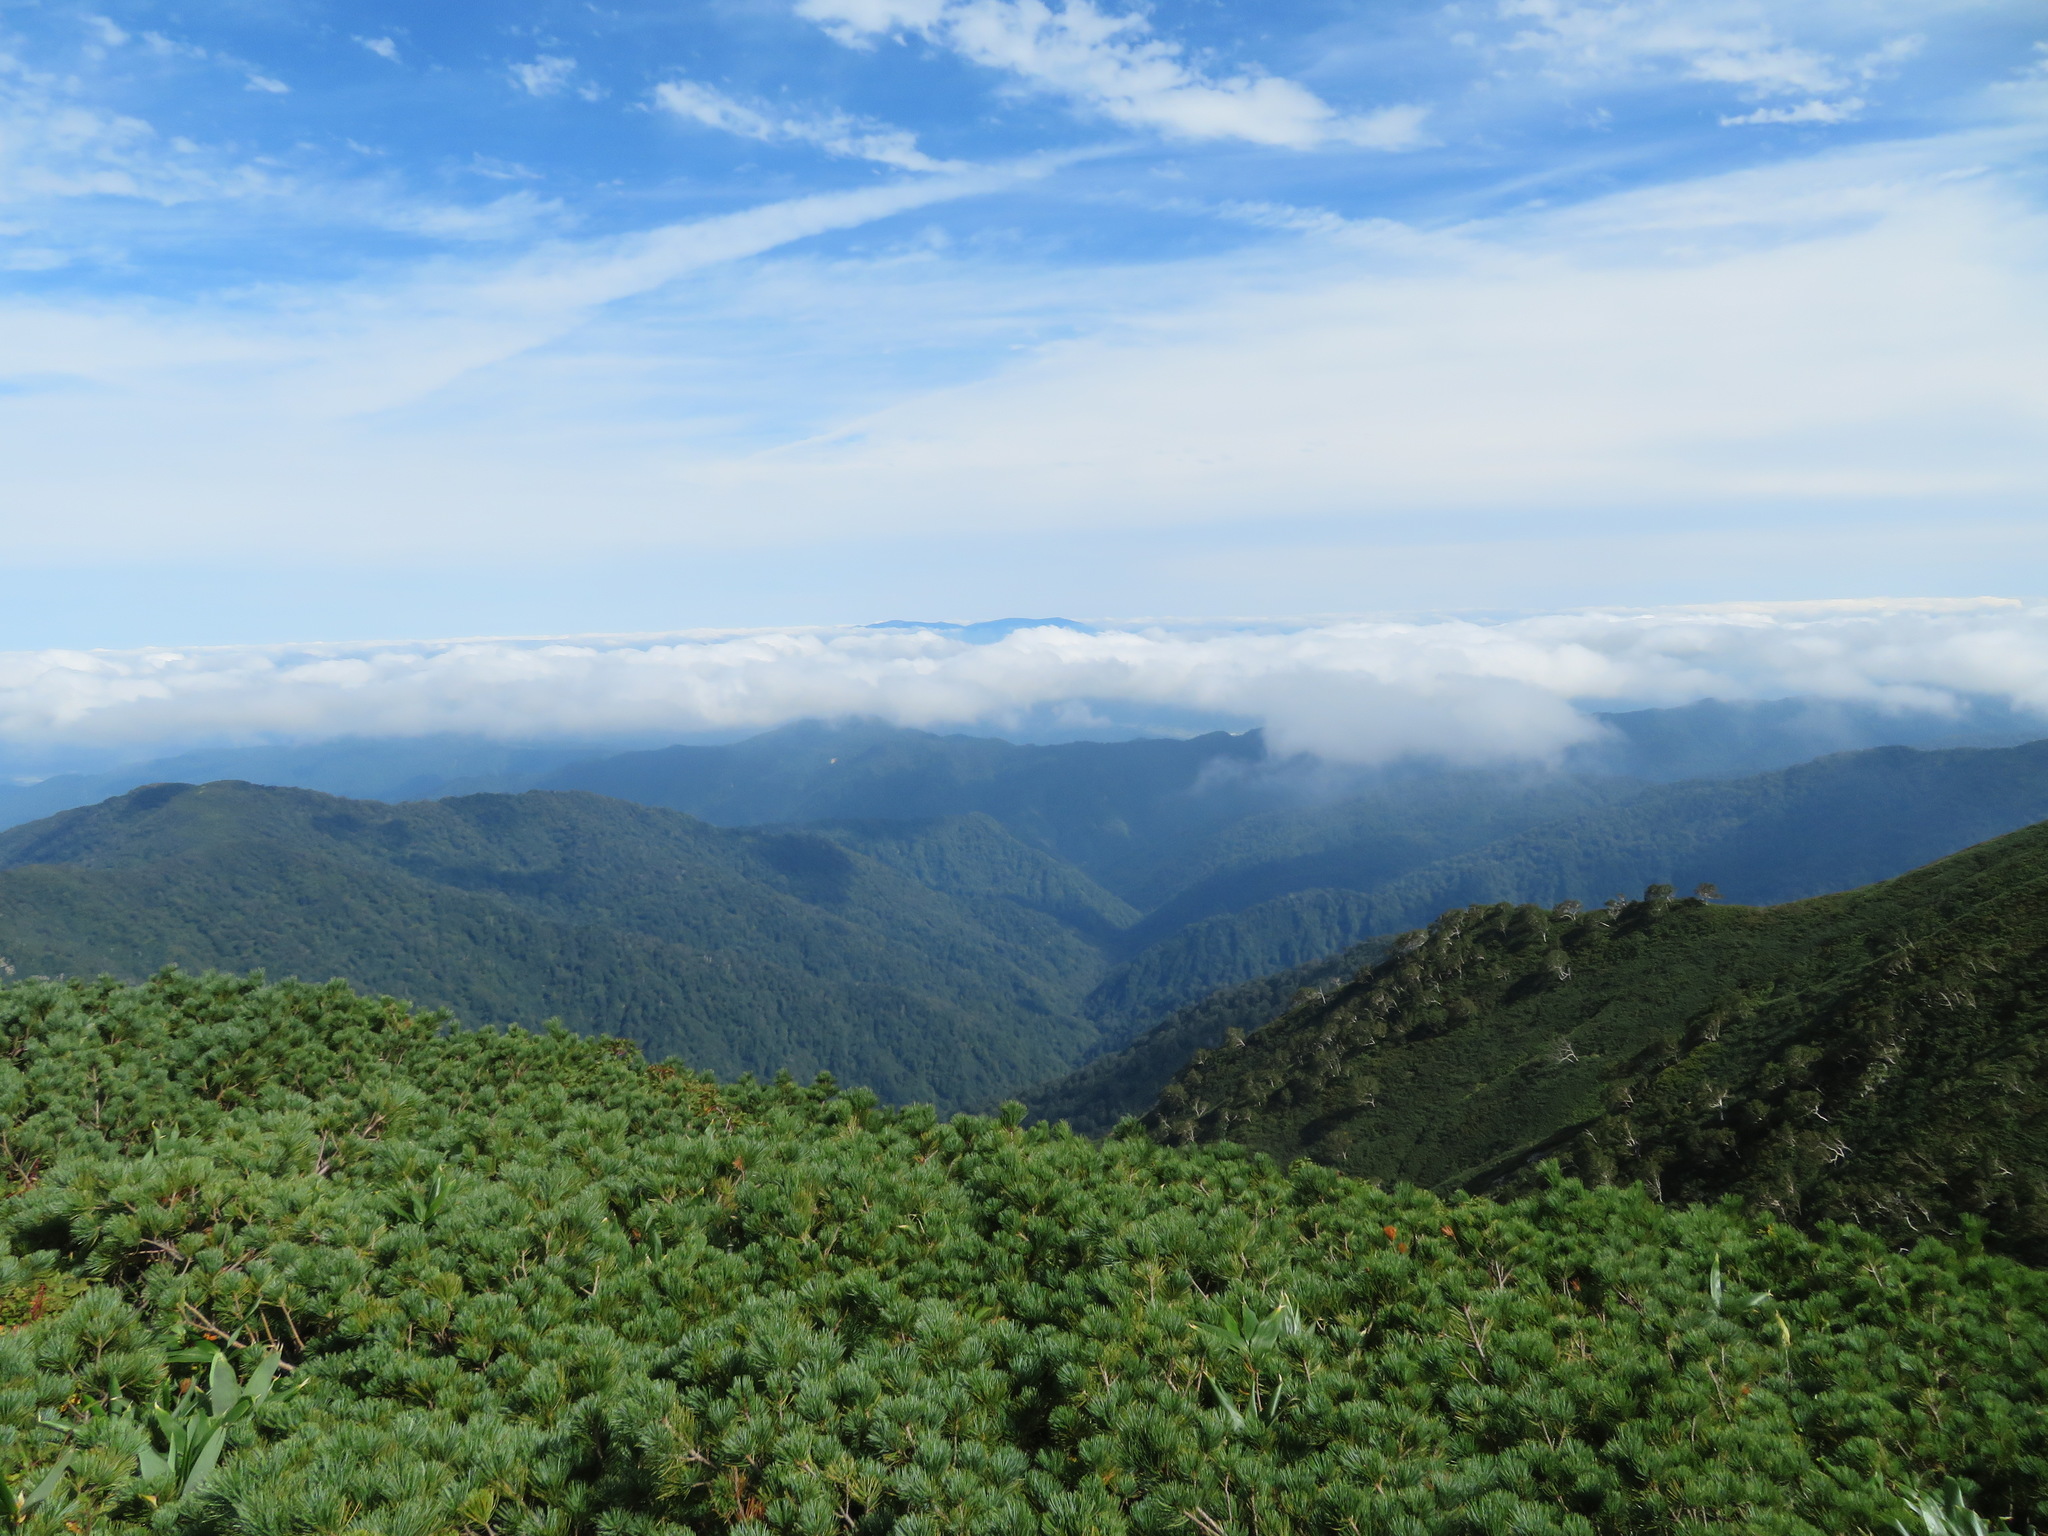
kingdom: Plantae
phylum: Tracheophyta
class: Pinopsida
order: Pinales
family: Pinaceae
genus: Pinus
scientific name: Pinus pumila
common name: Dwarf siberian pine
